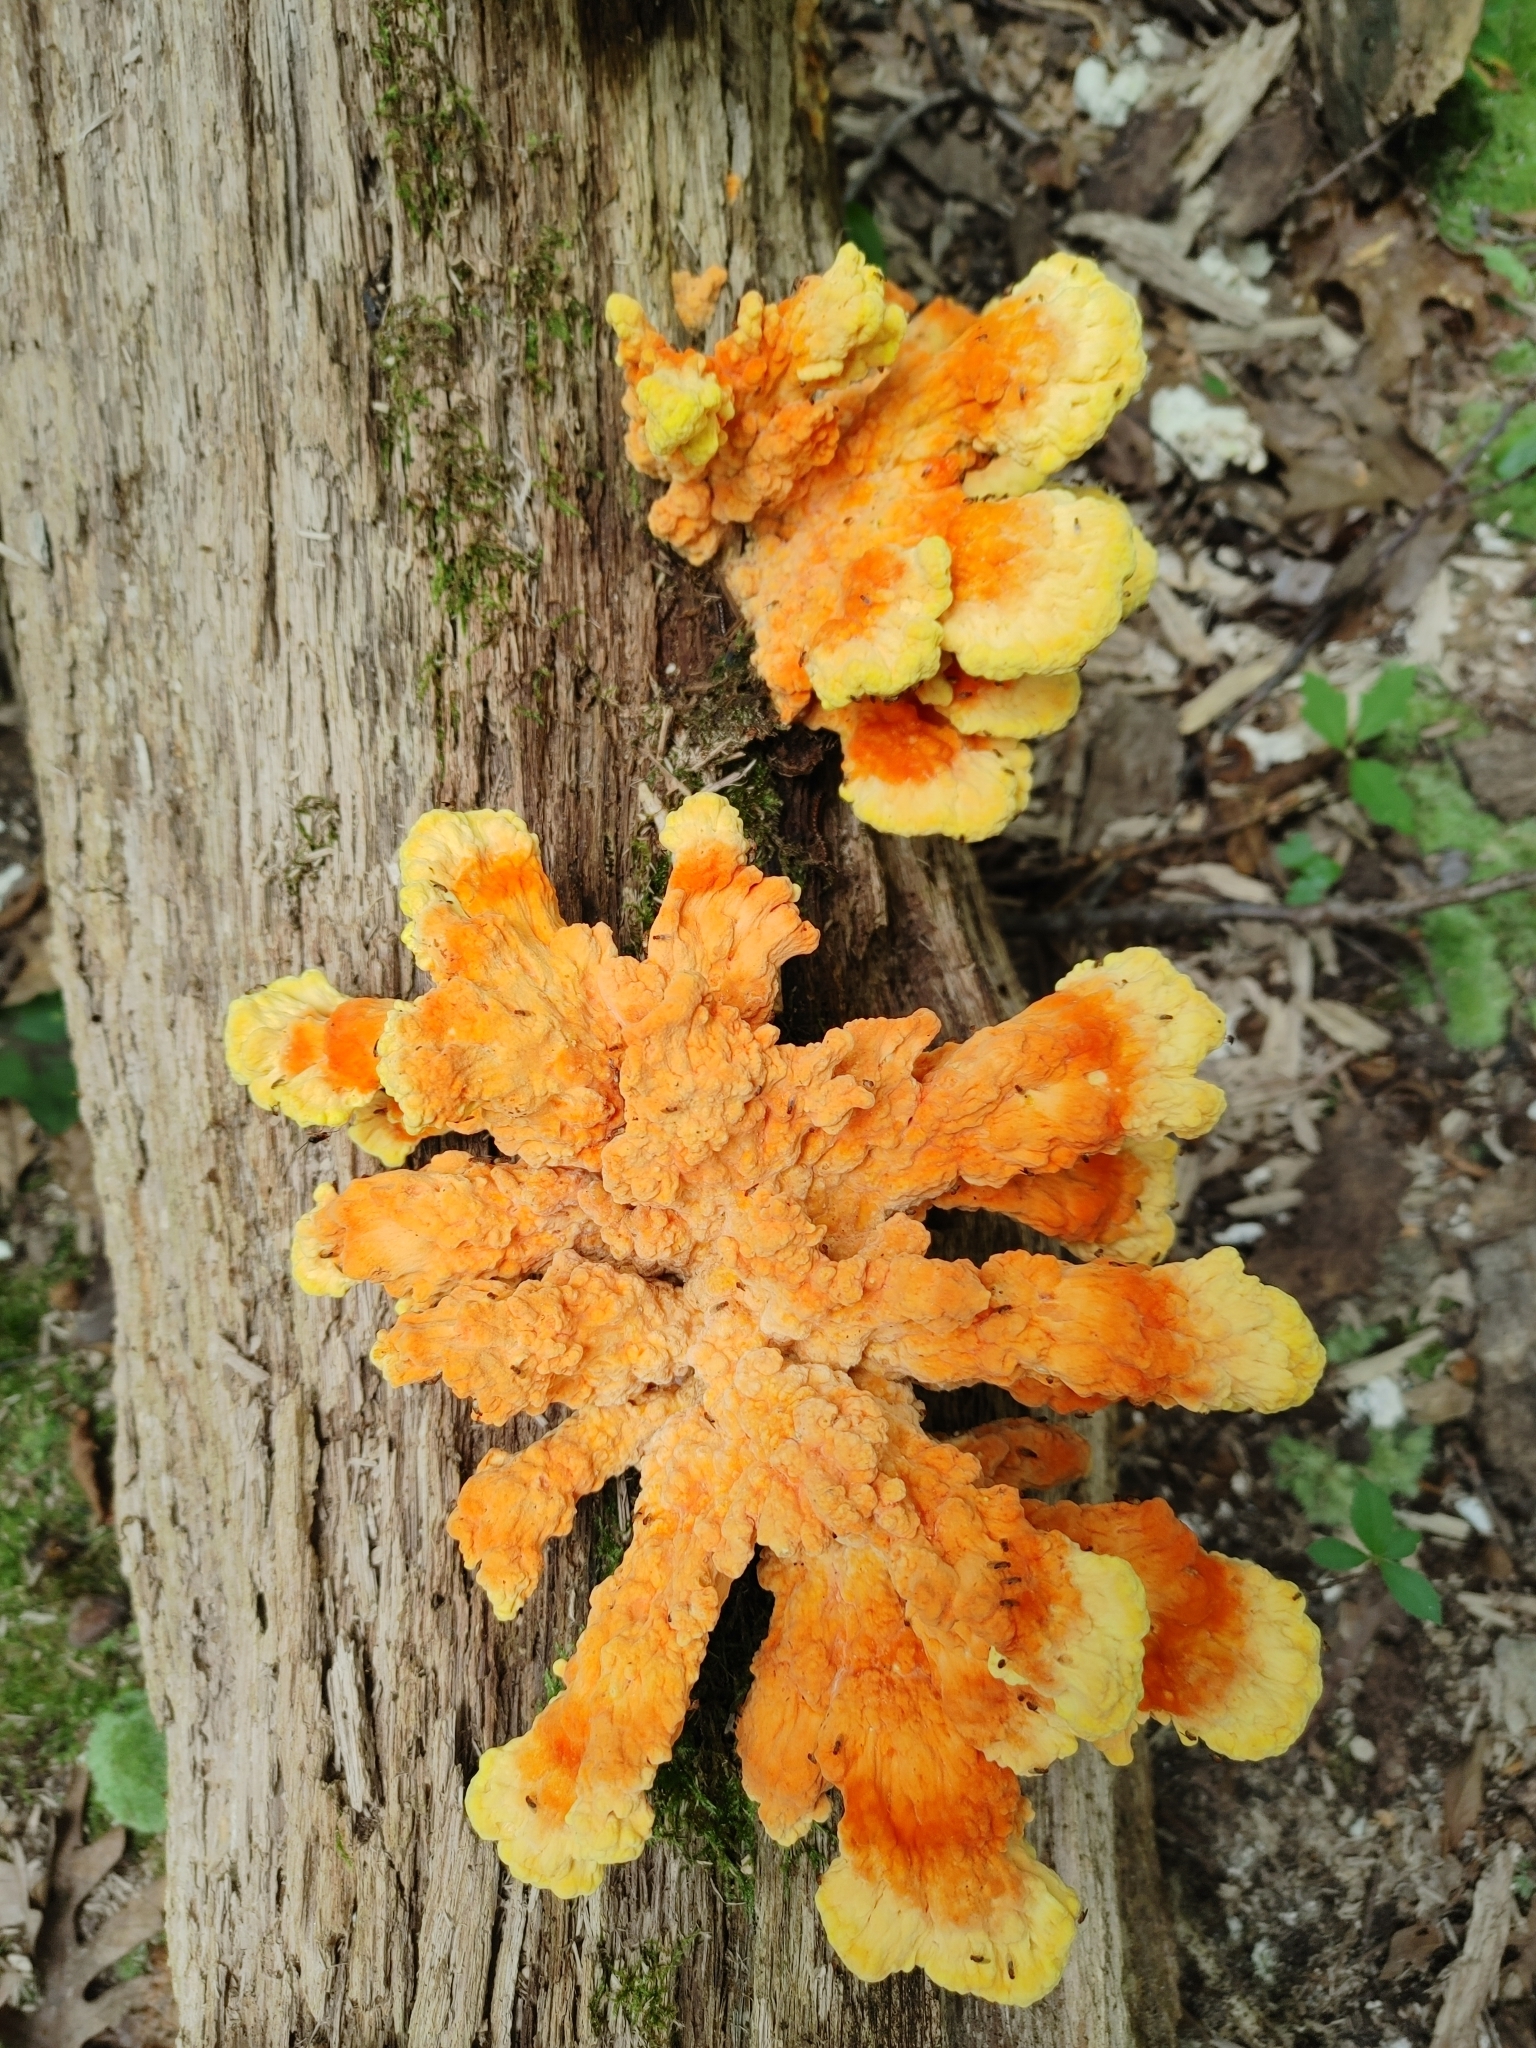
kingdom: Fungi
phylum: Basidiomycota
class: Agaricomycetes
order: Polyporales
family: Laetiporaceae
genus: Laetiporus
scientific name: Laetiporus sulphureus
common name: Chicken of the woods
